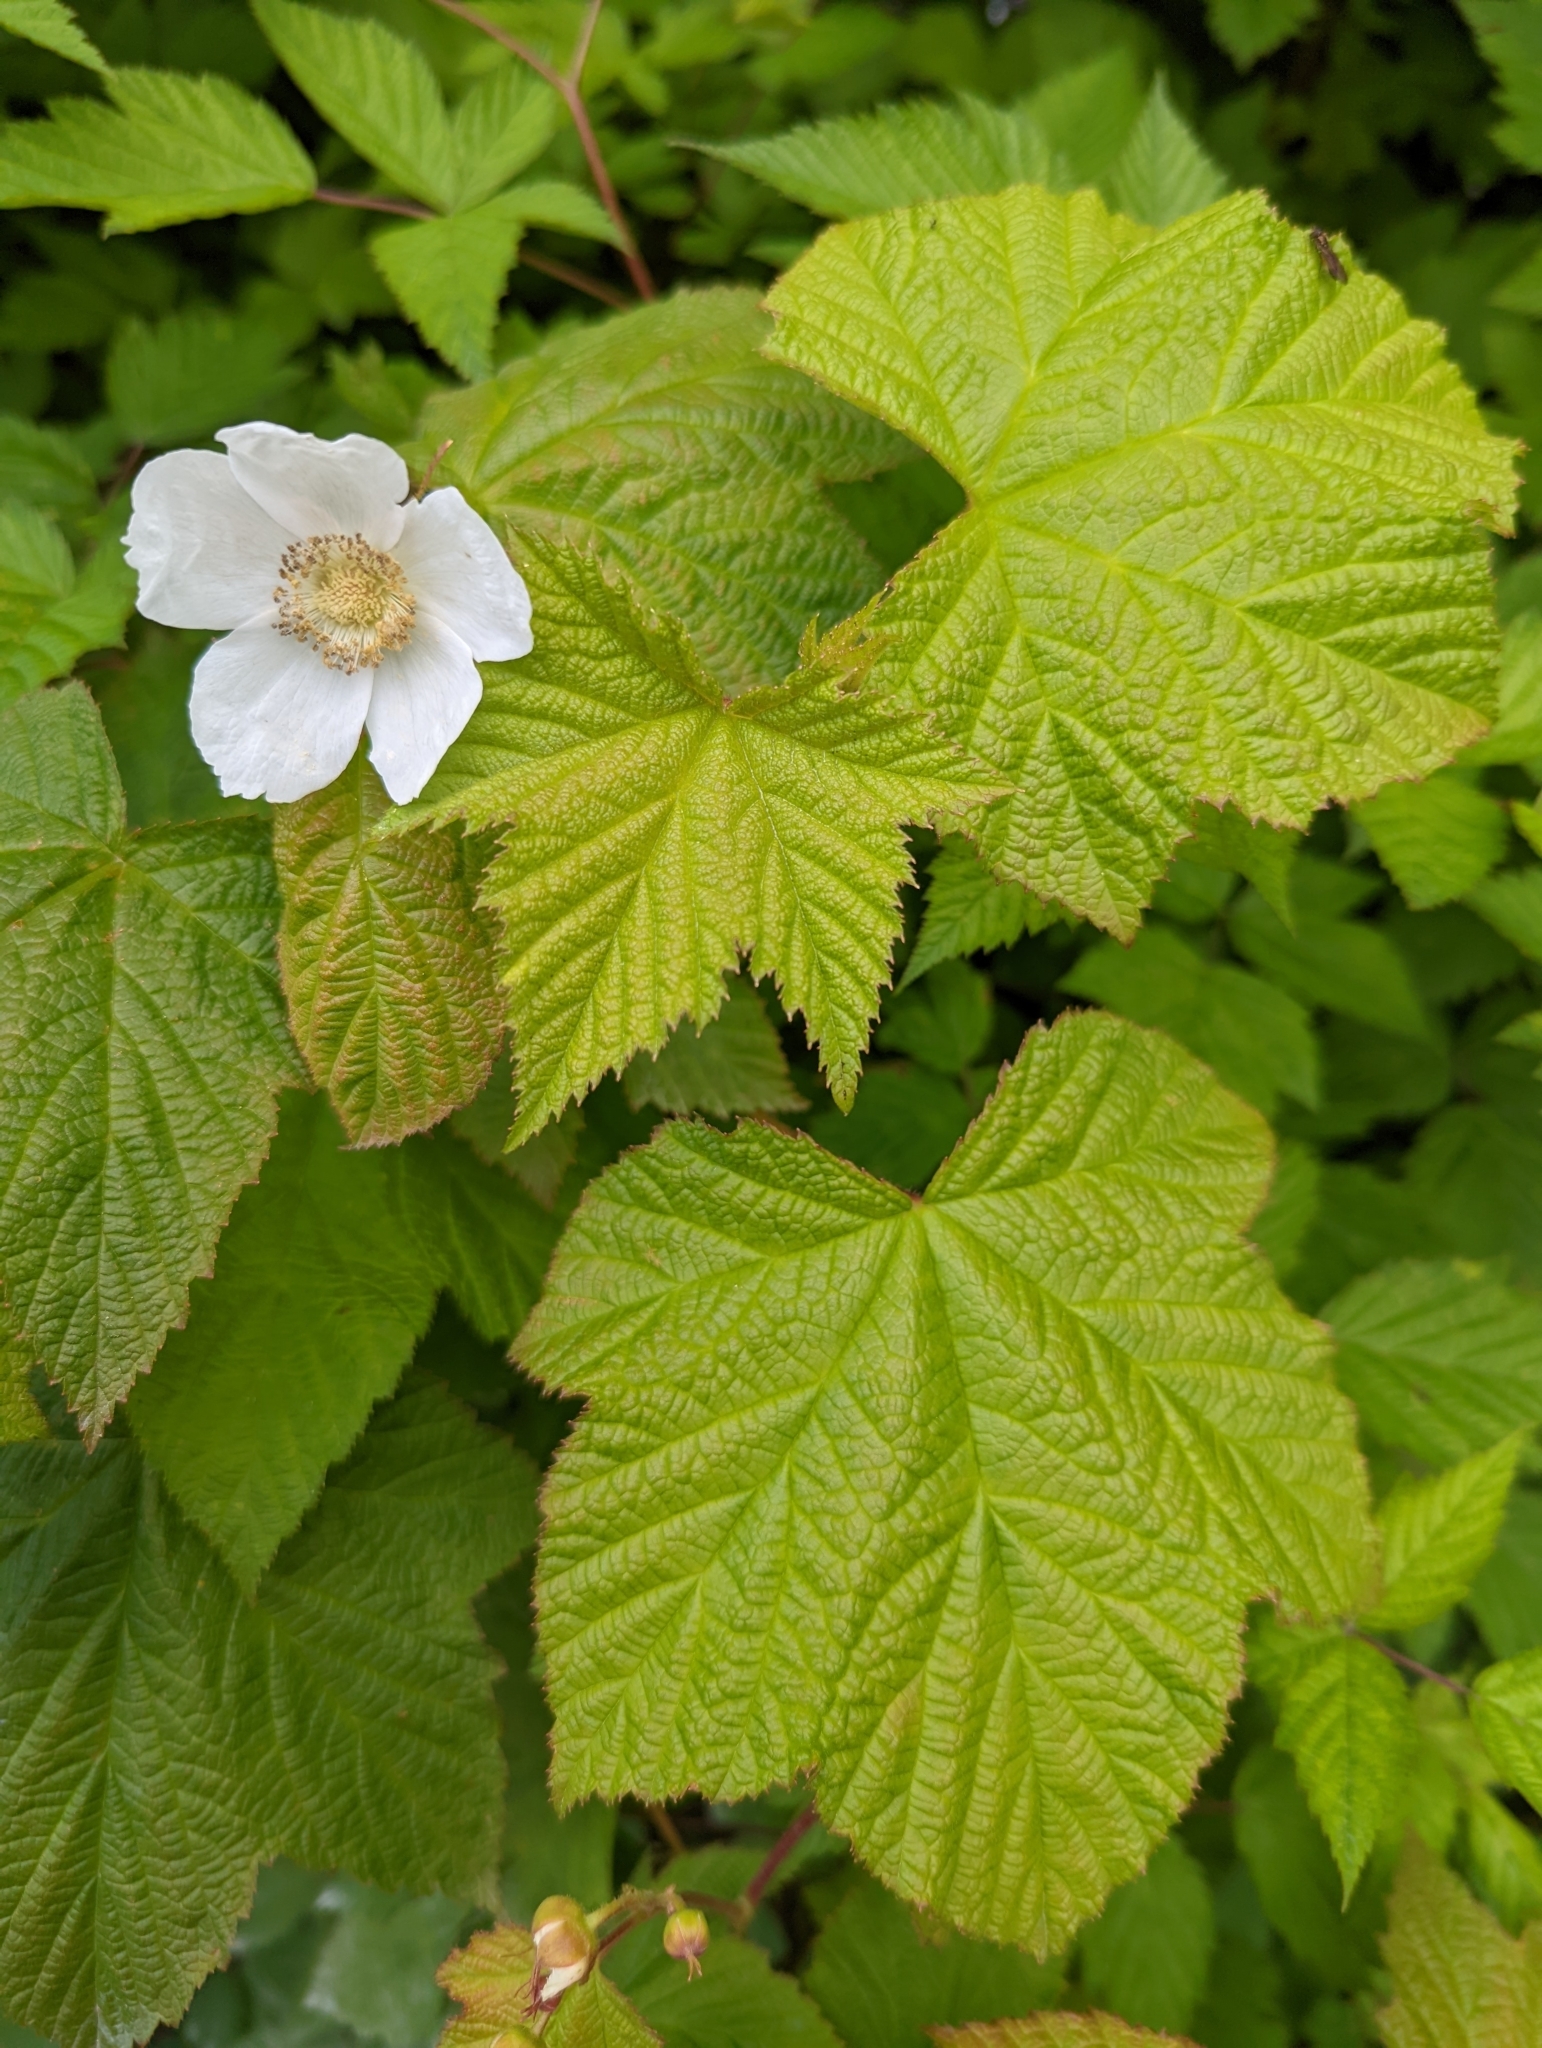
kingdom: Plantae
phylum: Tracheophyta
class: Magnoliopsida
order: Rosales
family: Rosaceae
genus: Rubus
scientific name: Rubus parviflorus
